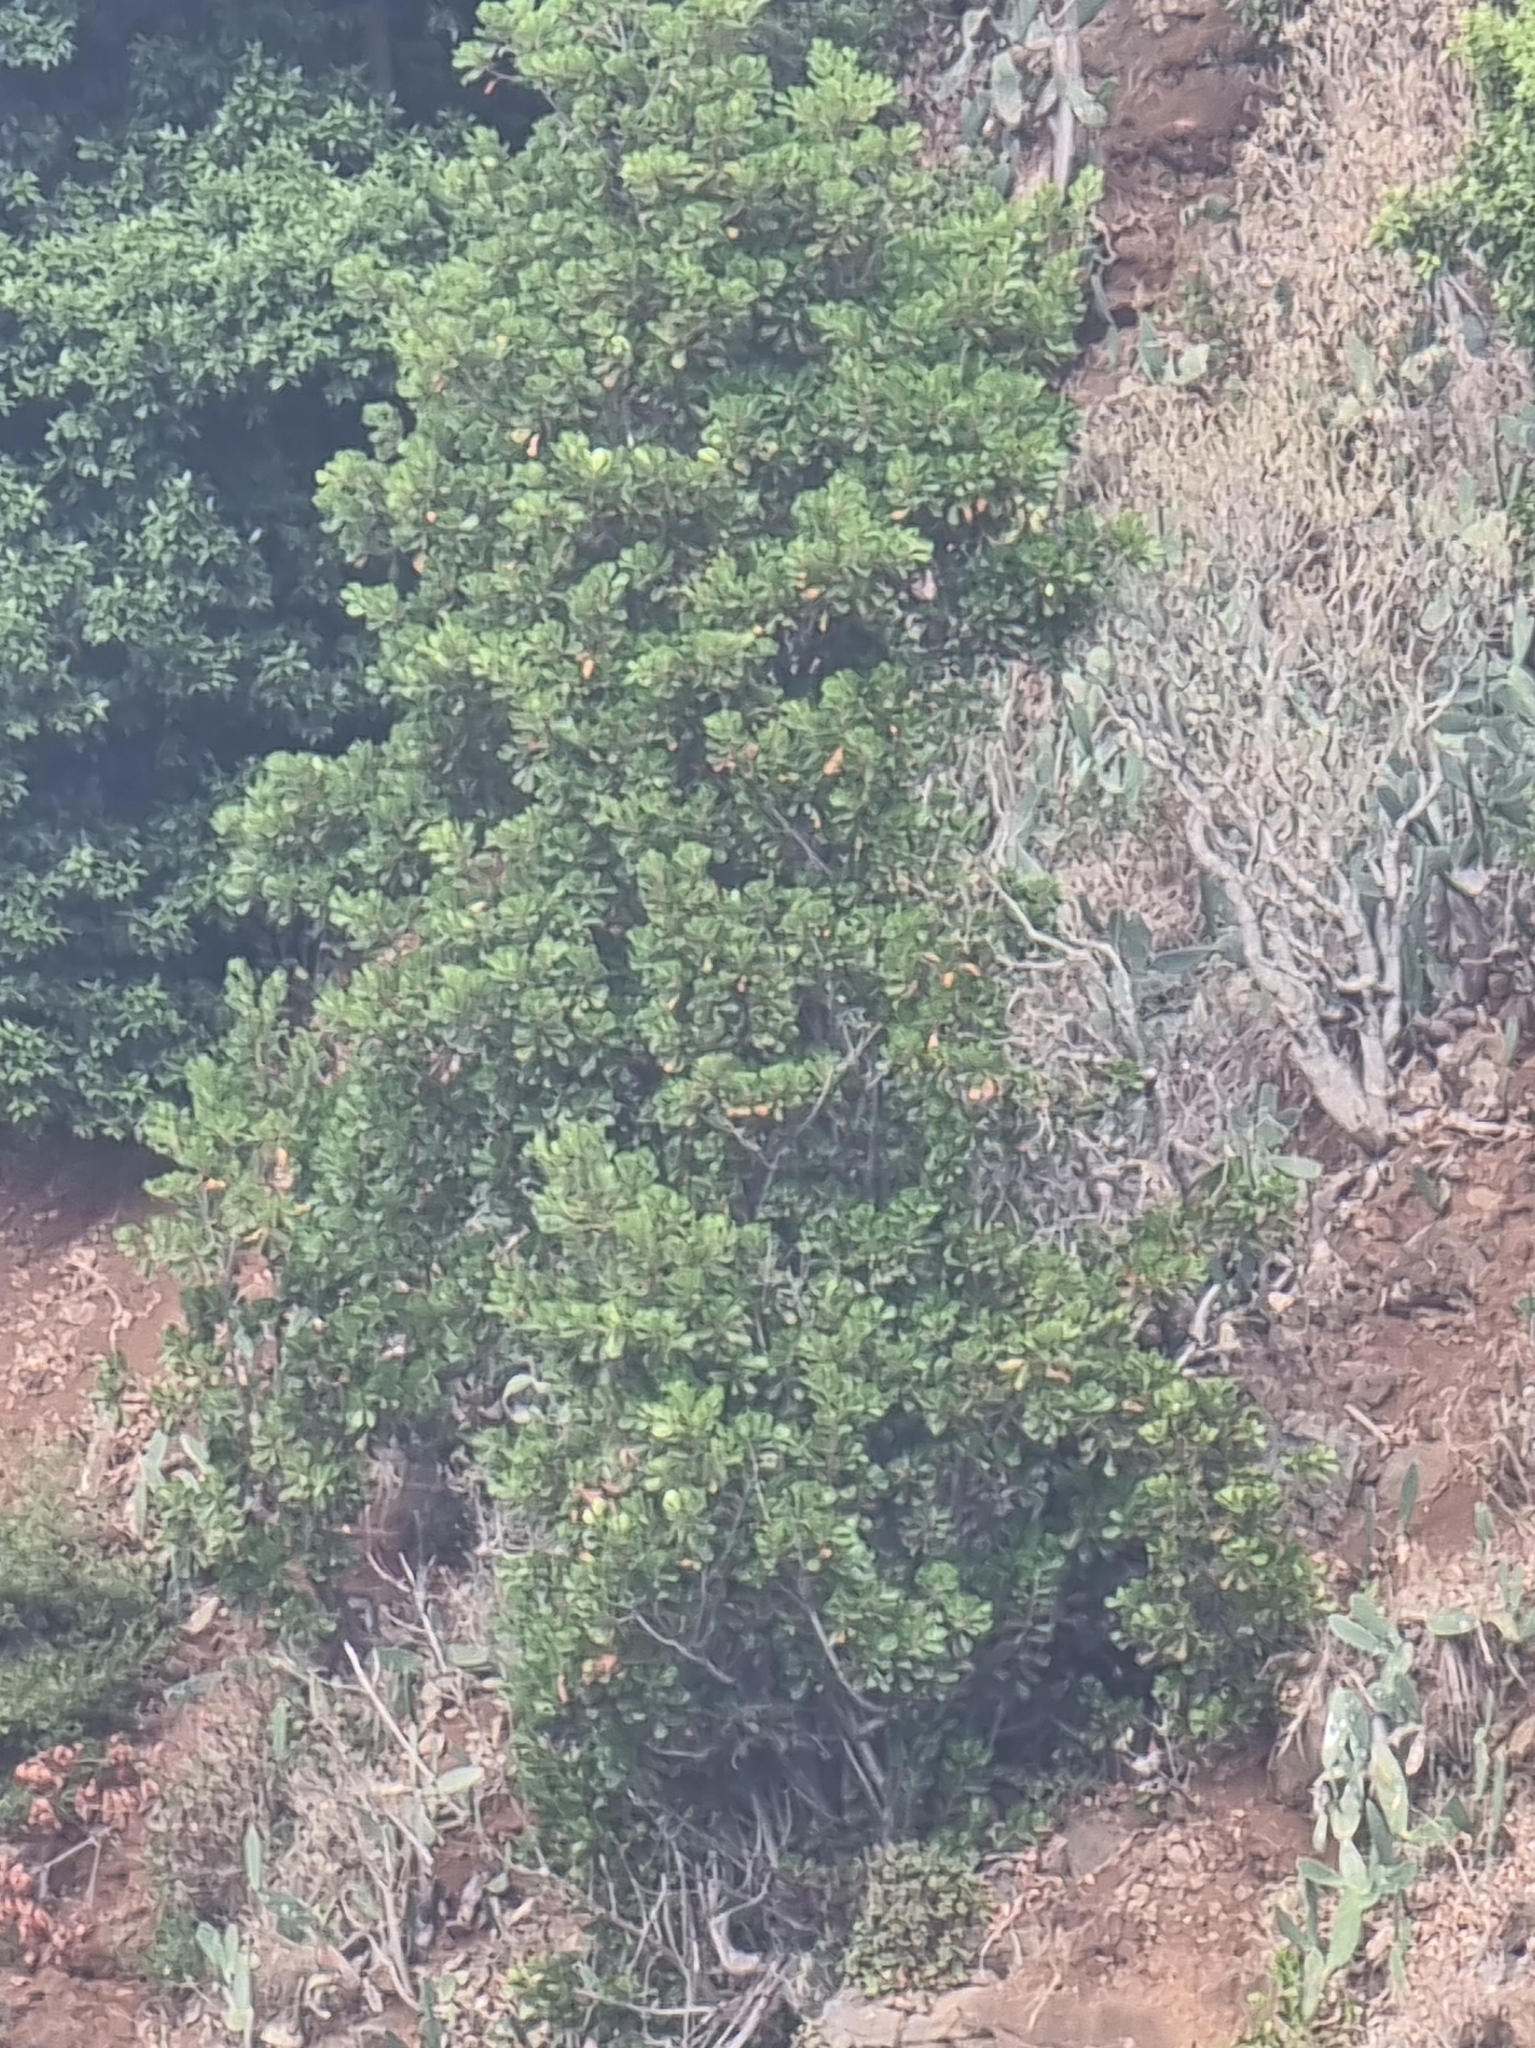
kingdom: Plantae
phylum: Tracheophyta
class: Magnoliopsida
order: Ericales
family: Sapotaceae
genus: Sideroxylon
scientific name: Sideroxylon mirmulans
